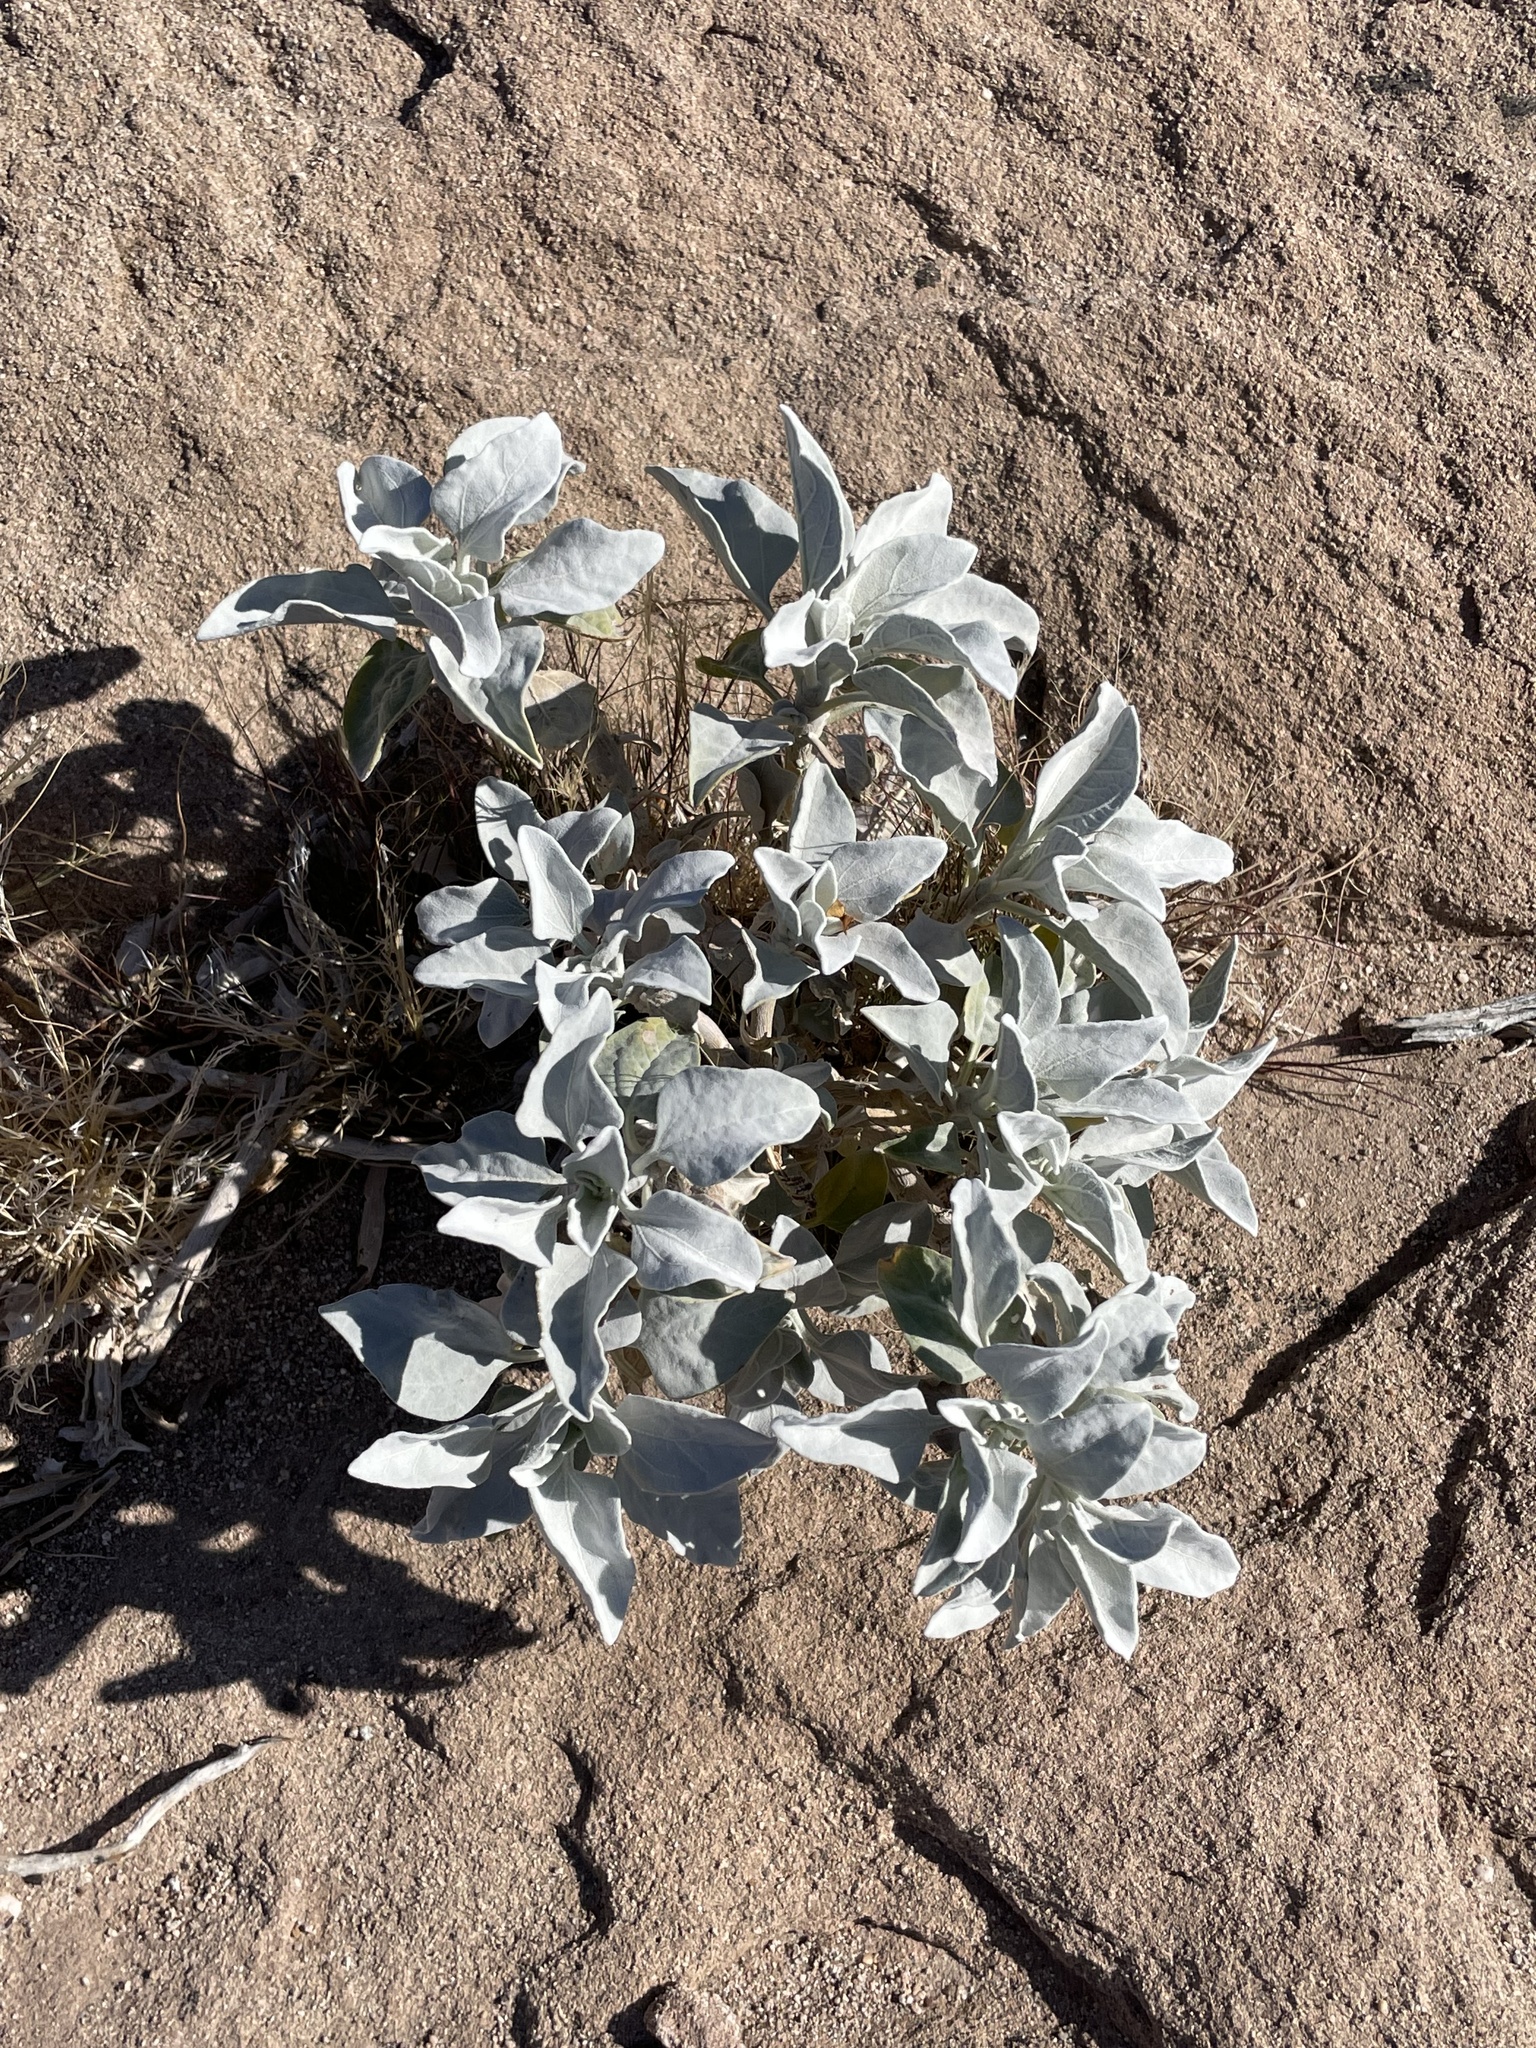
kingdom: Plantae
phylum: Tracheophyta
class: Magnoliopsida
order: Asterales
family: Asteraceae
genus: Encelia
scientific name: Encelia farinosa
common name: Brittlebush
